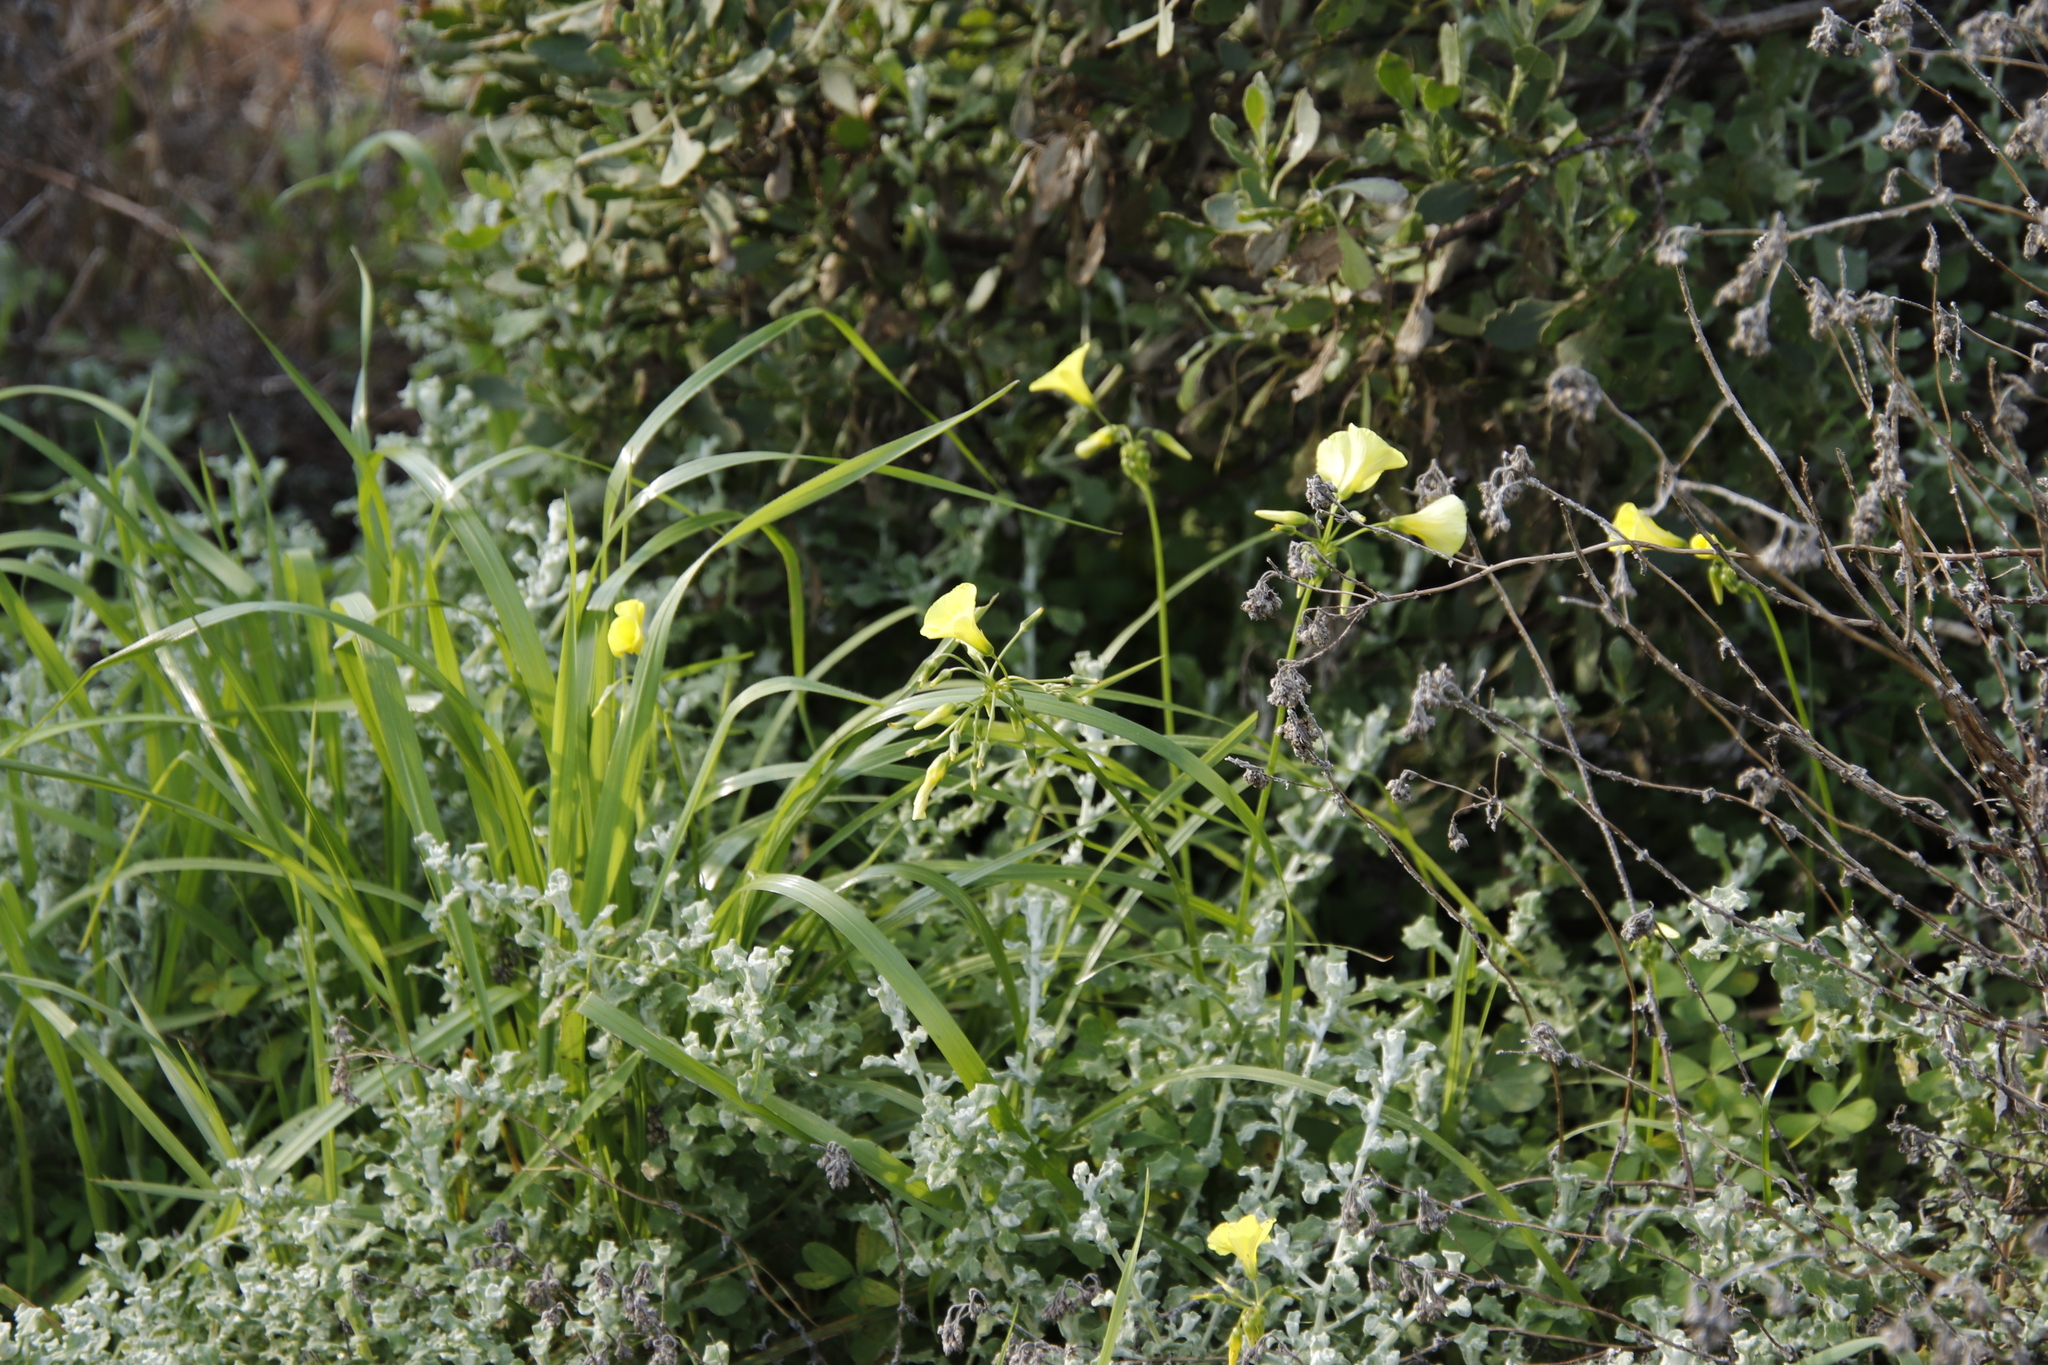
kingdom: Plantae
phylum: Tracheophyta
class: Magnoliopsida
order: Oxalidales
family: Oxalidaceae
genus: Oxalis
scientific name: Oxalis pes-caprae
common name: Bermuda-buttercup
